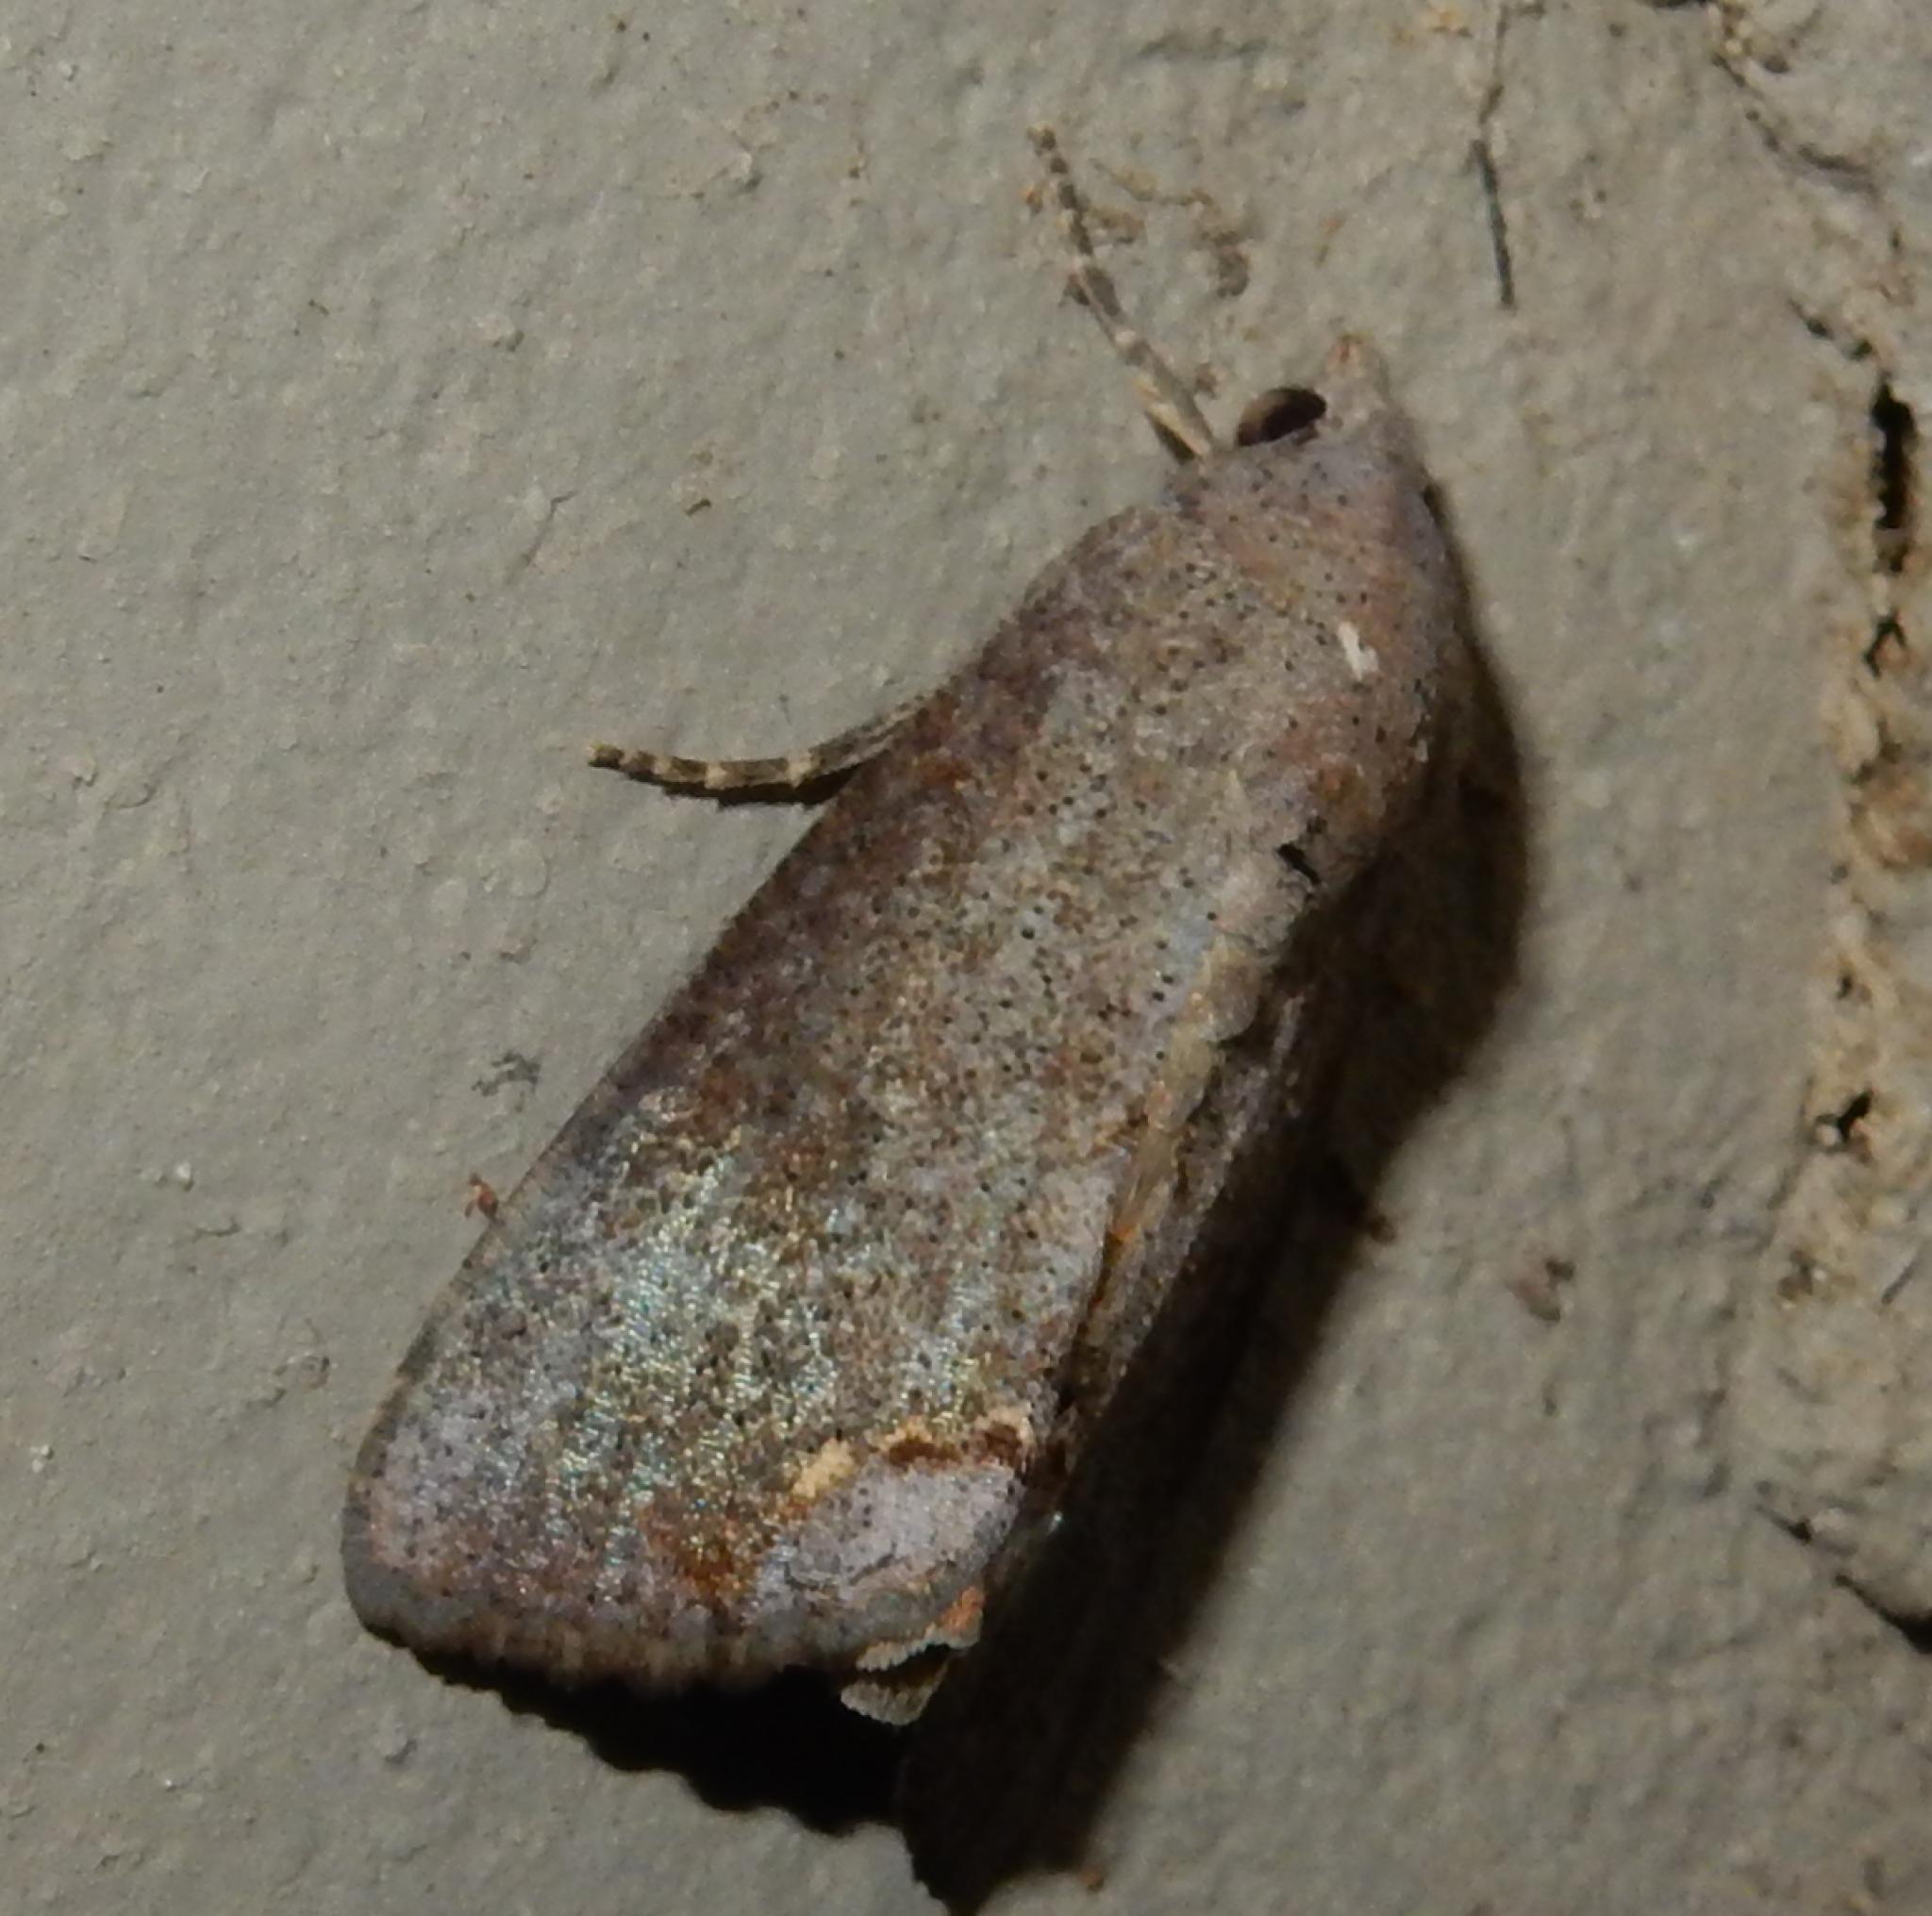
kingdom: Animalia
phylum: Arthropoda
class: Insecta
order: Lepidoptera
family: Erebidae
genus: Hypocala
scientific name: Hypocala deflorata
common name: Moth
